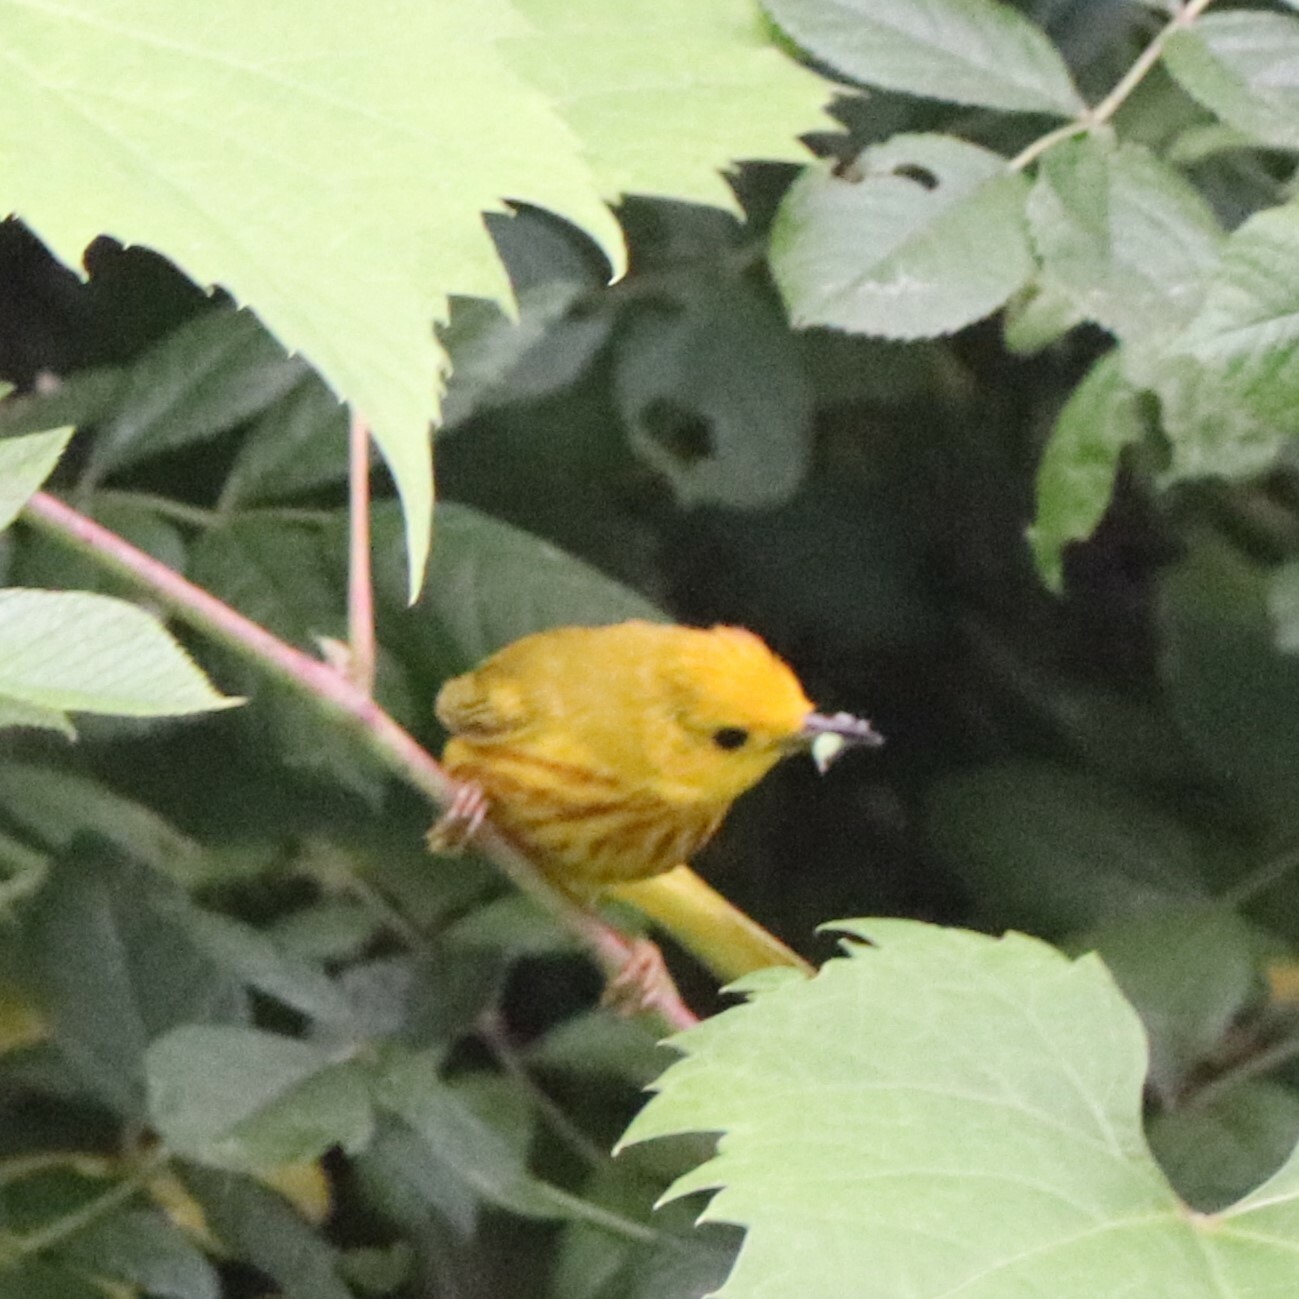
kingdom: Animalia
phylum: Chordata
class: Aves
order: Passeriformes
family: Parulidae
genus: Setophaga
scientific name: Setophaga petechia
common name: Yellow warbler
